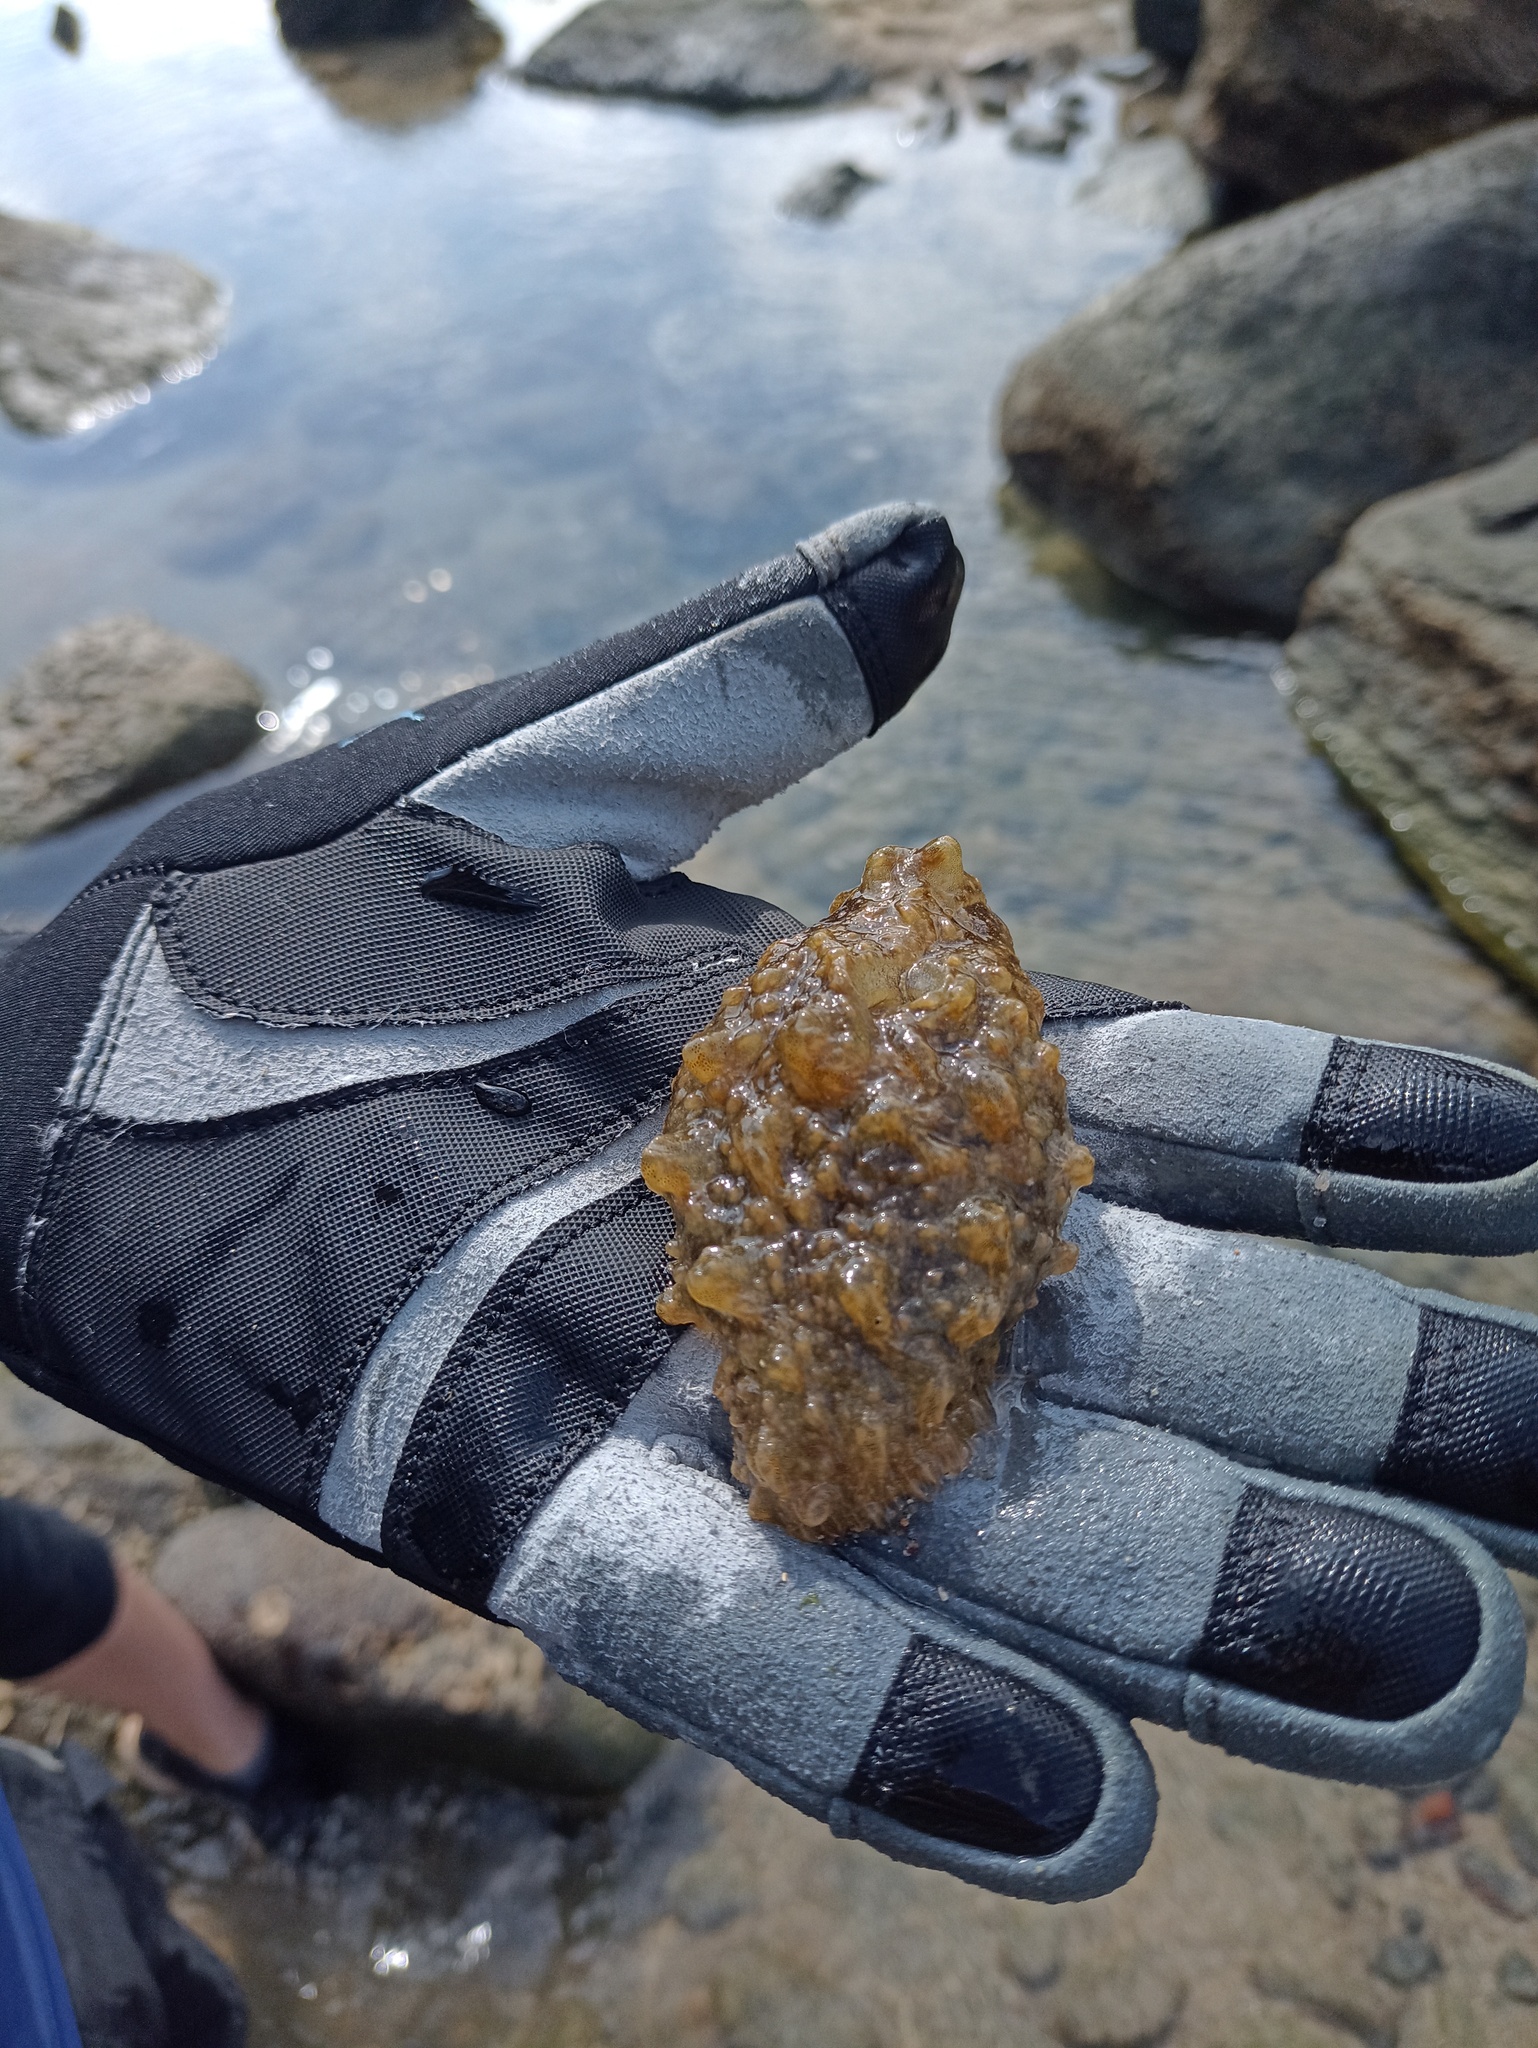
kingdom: Animalia
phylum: Mollusca
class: Gastropoda
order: Aplysiida
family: Aplysiidae
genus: Bursatella
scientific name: Bursatella leachii
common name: Shaggy sea hare
